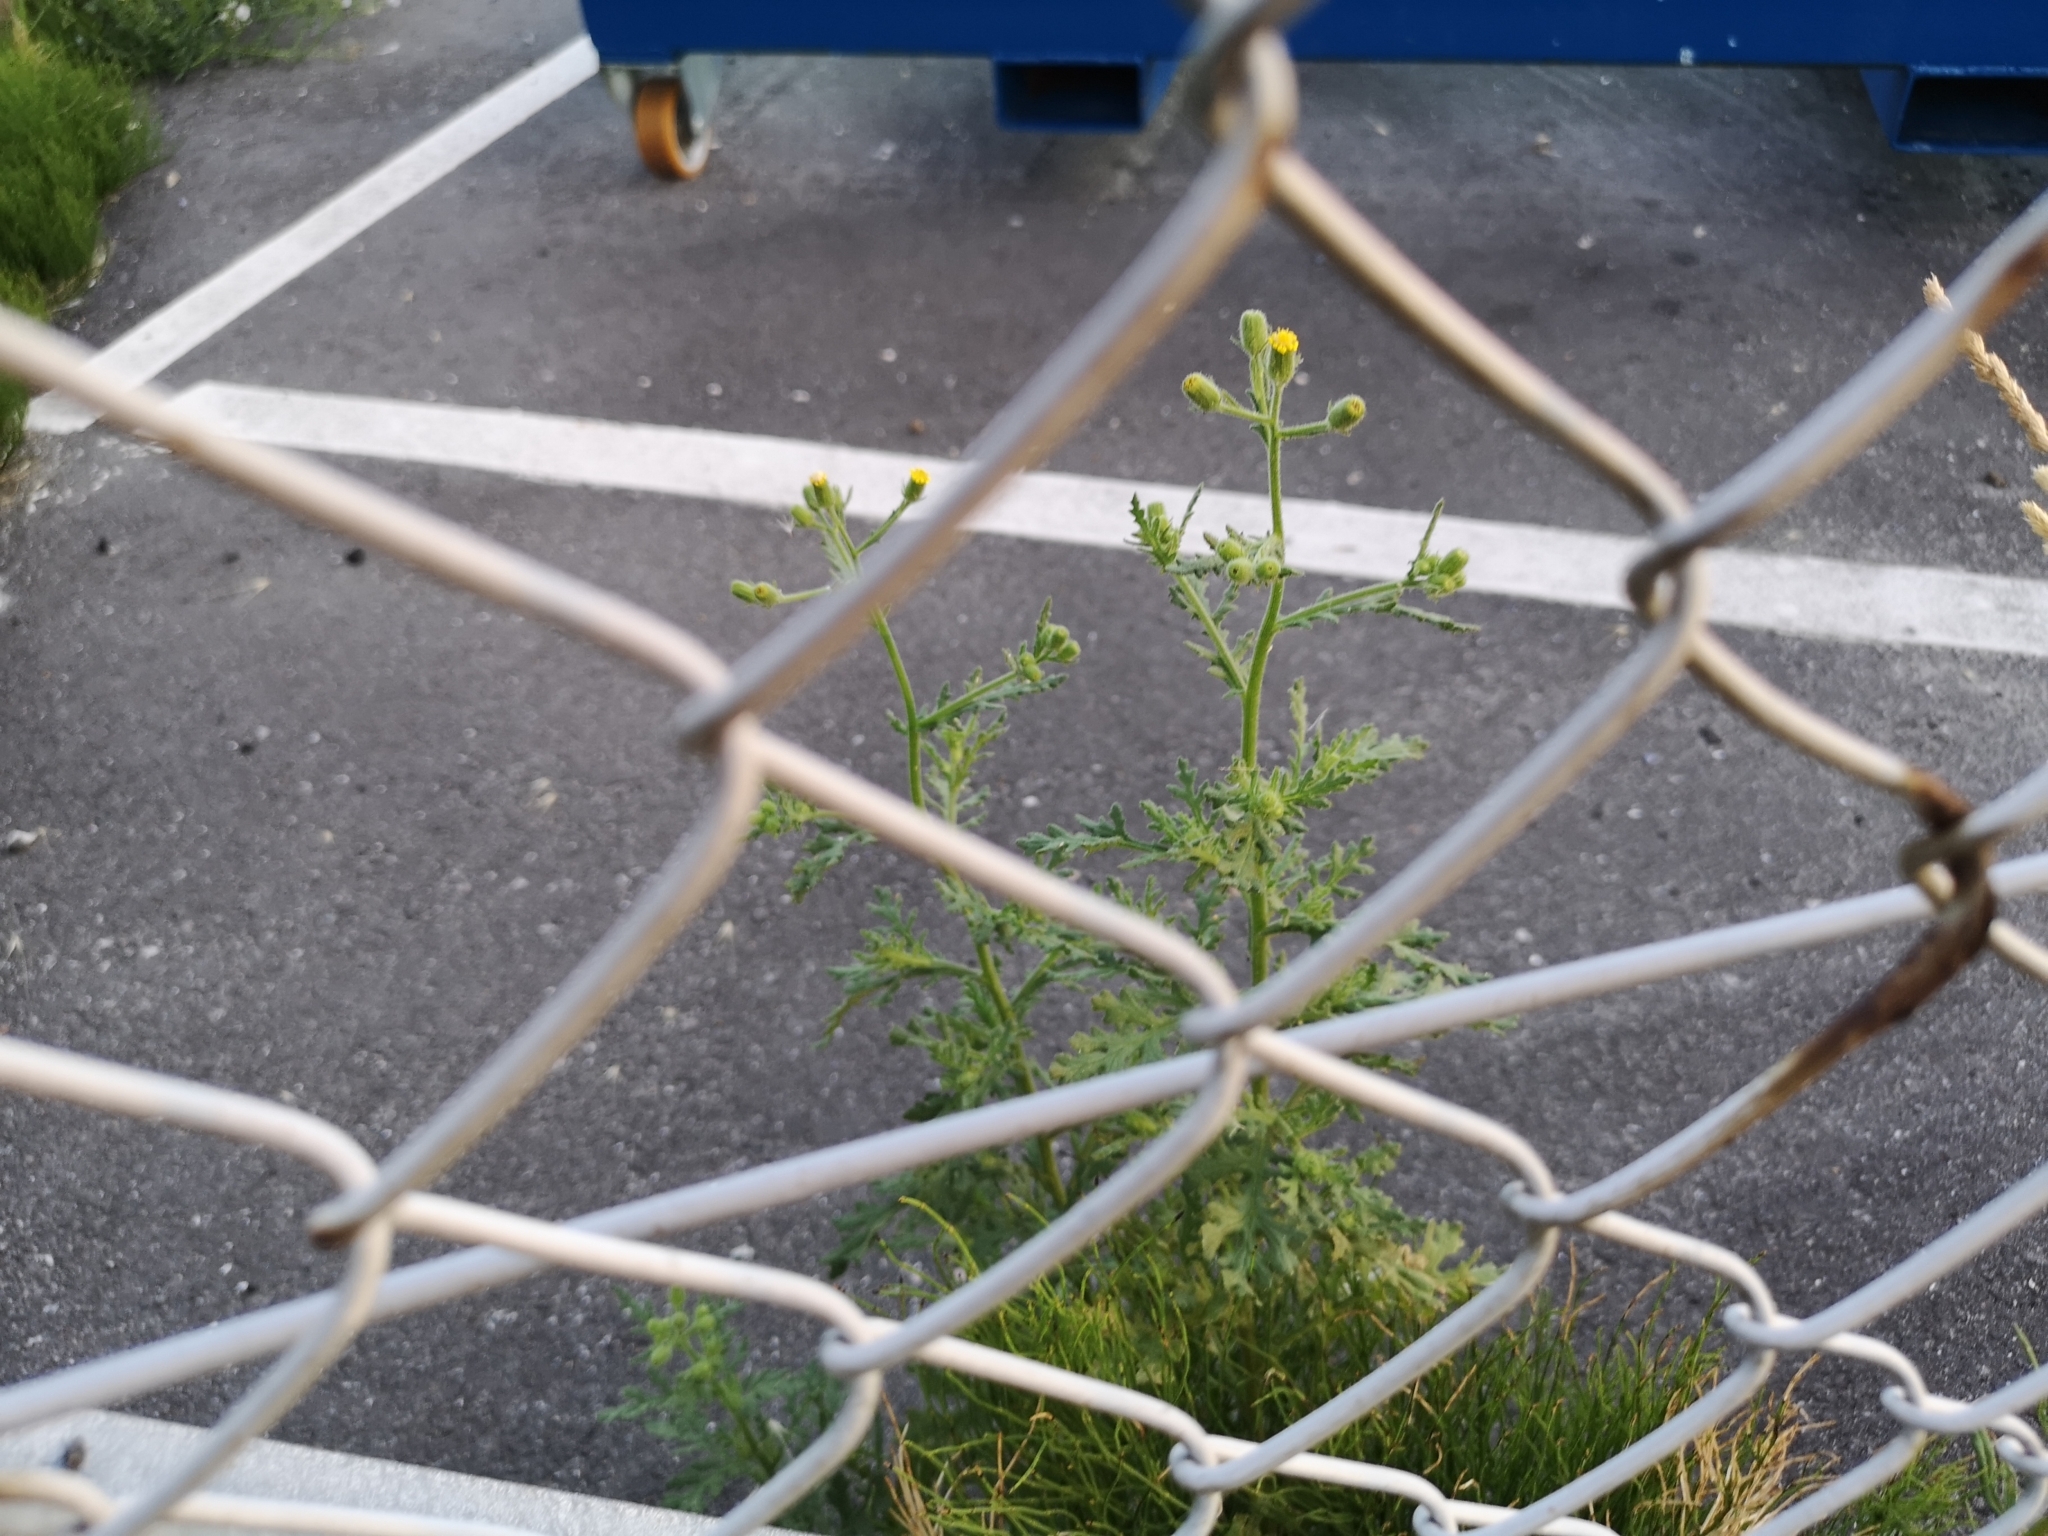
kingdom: Plantae
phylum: Tracheophyta
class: Magnoliopsida
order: Asterales
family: Asteraceae
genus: Senecio
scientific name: Senecio viscosus
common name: Sticky groundsel
